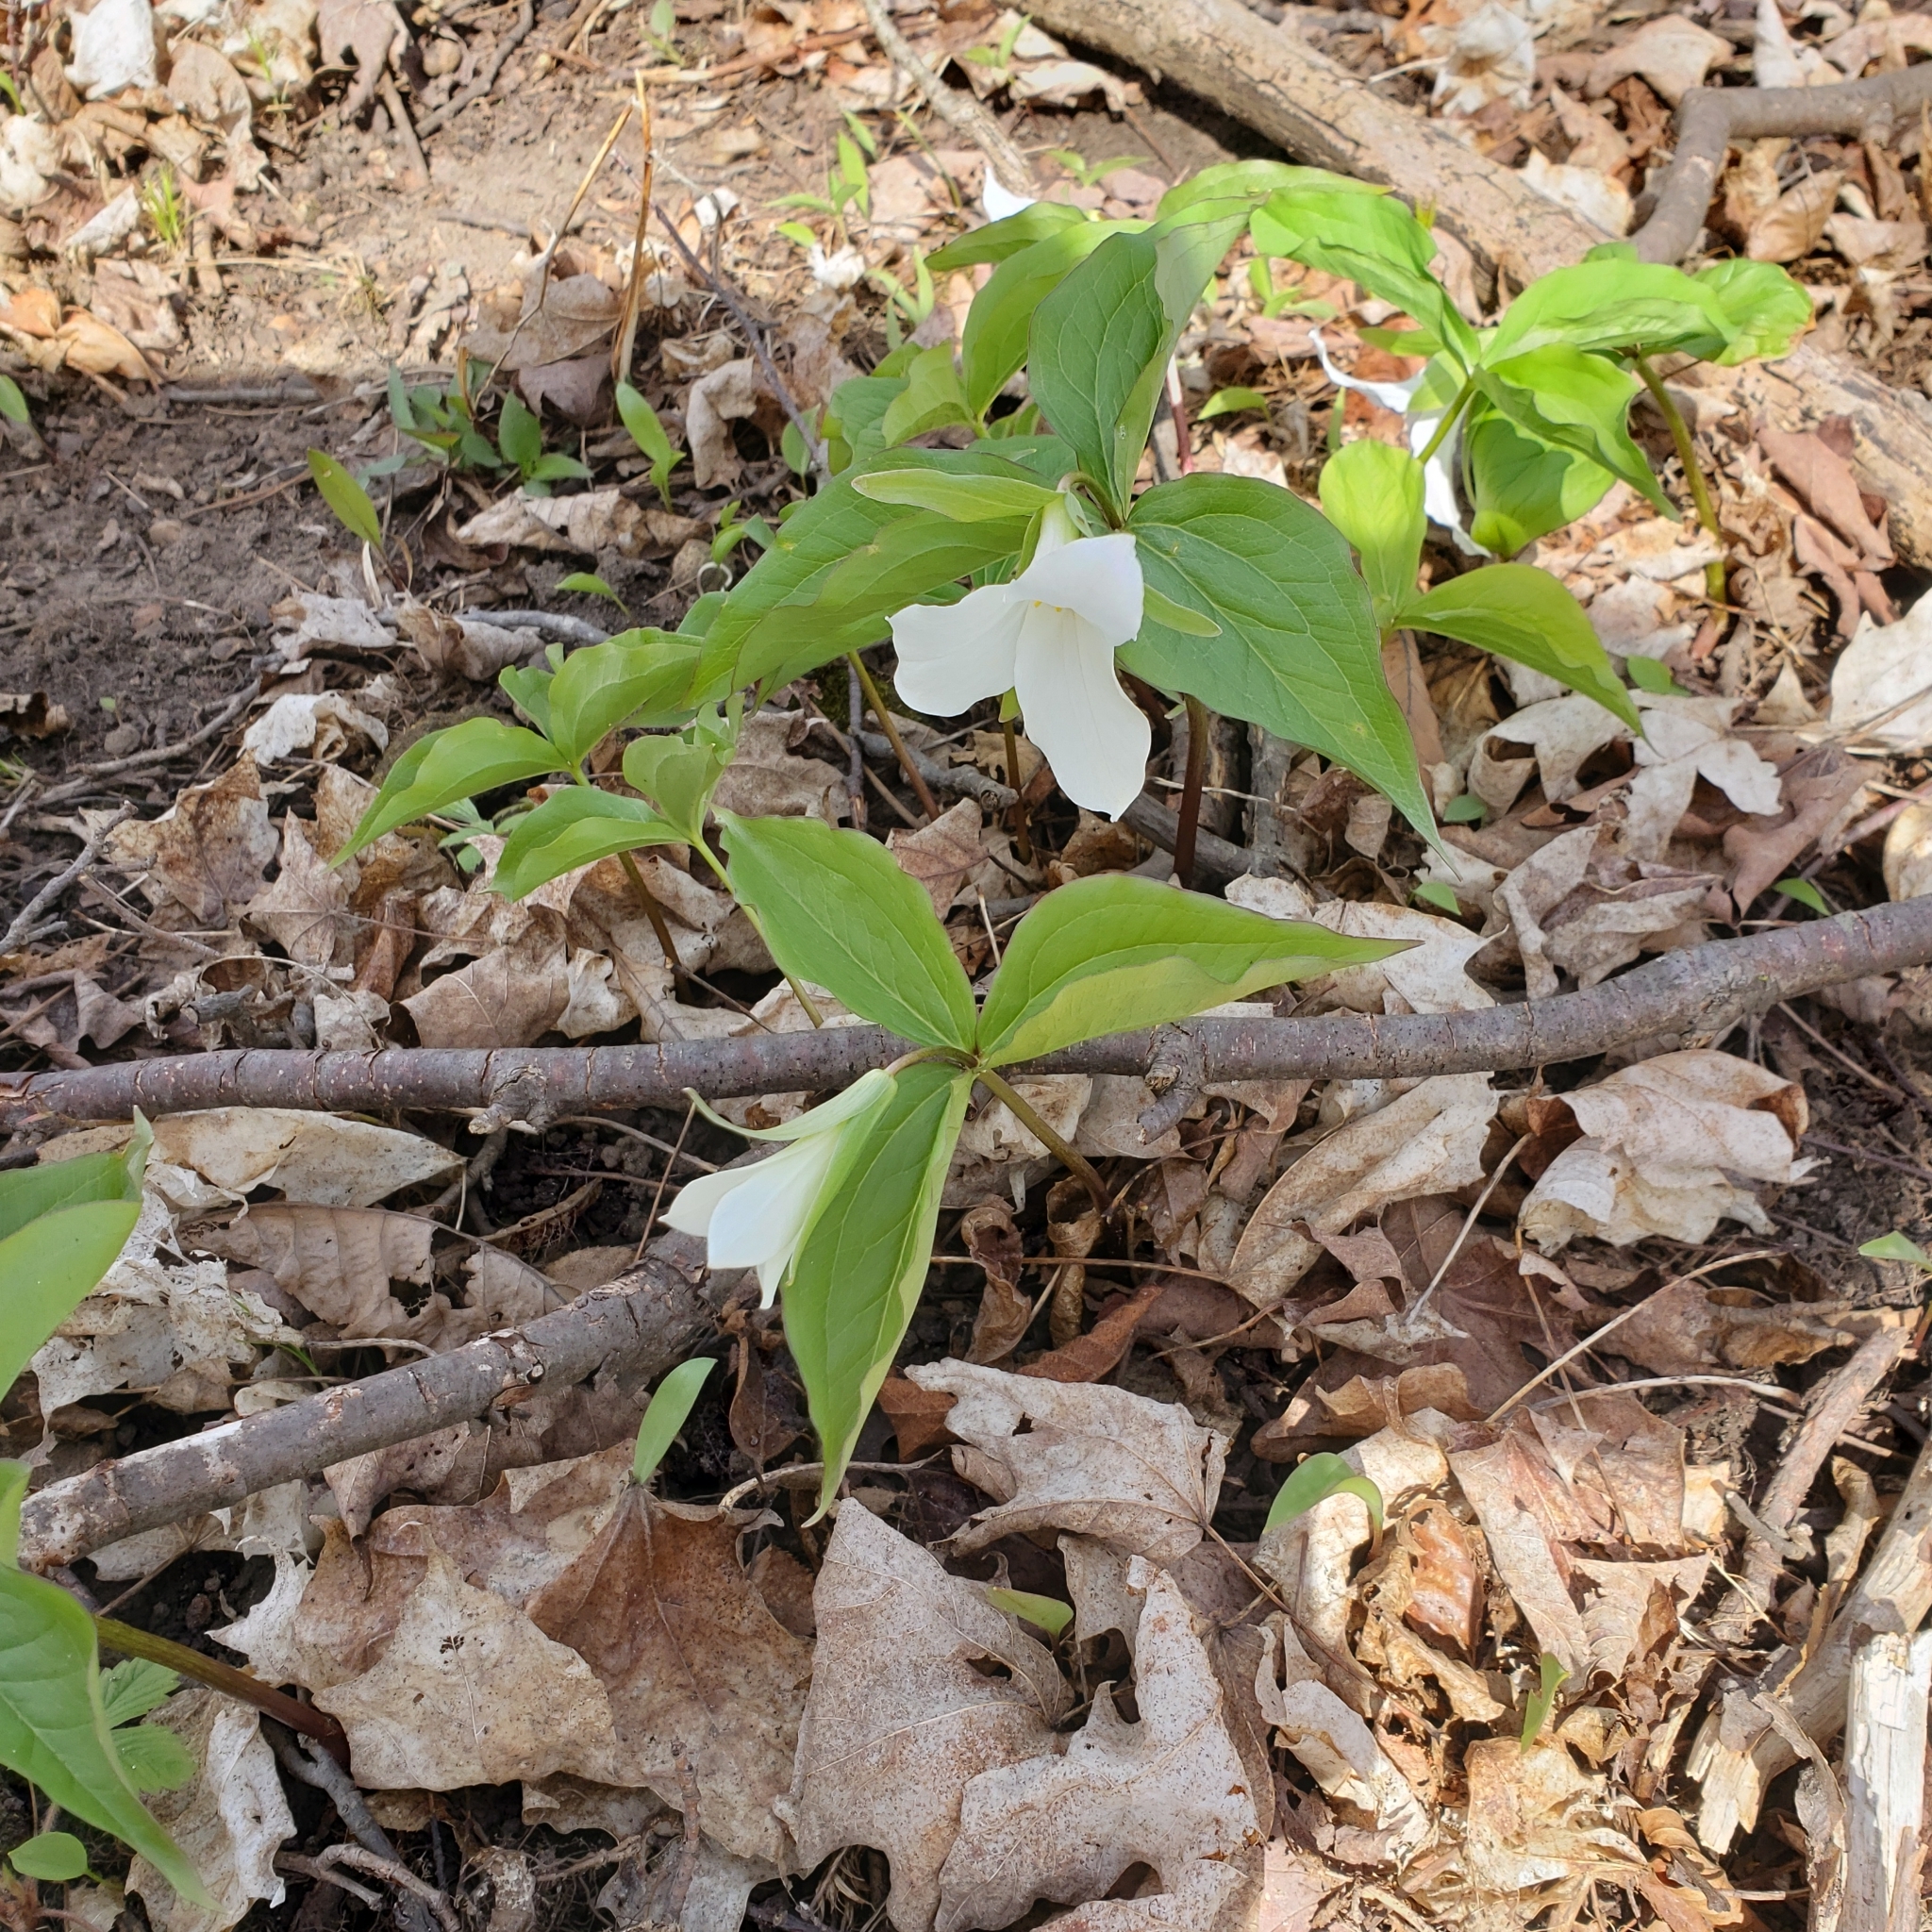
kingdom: Plantae
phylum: Tracheophyta
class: Liliopsida
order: Liliales
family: Melanthiaceae
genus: Trillium
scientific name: Trillium grandiflorum
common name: Great white trillium
